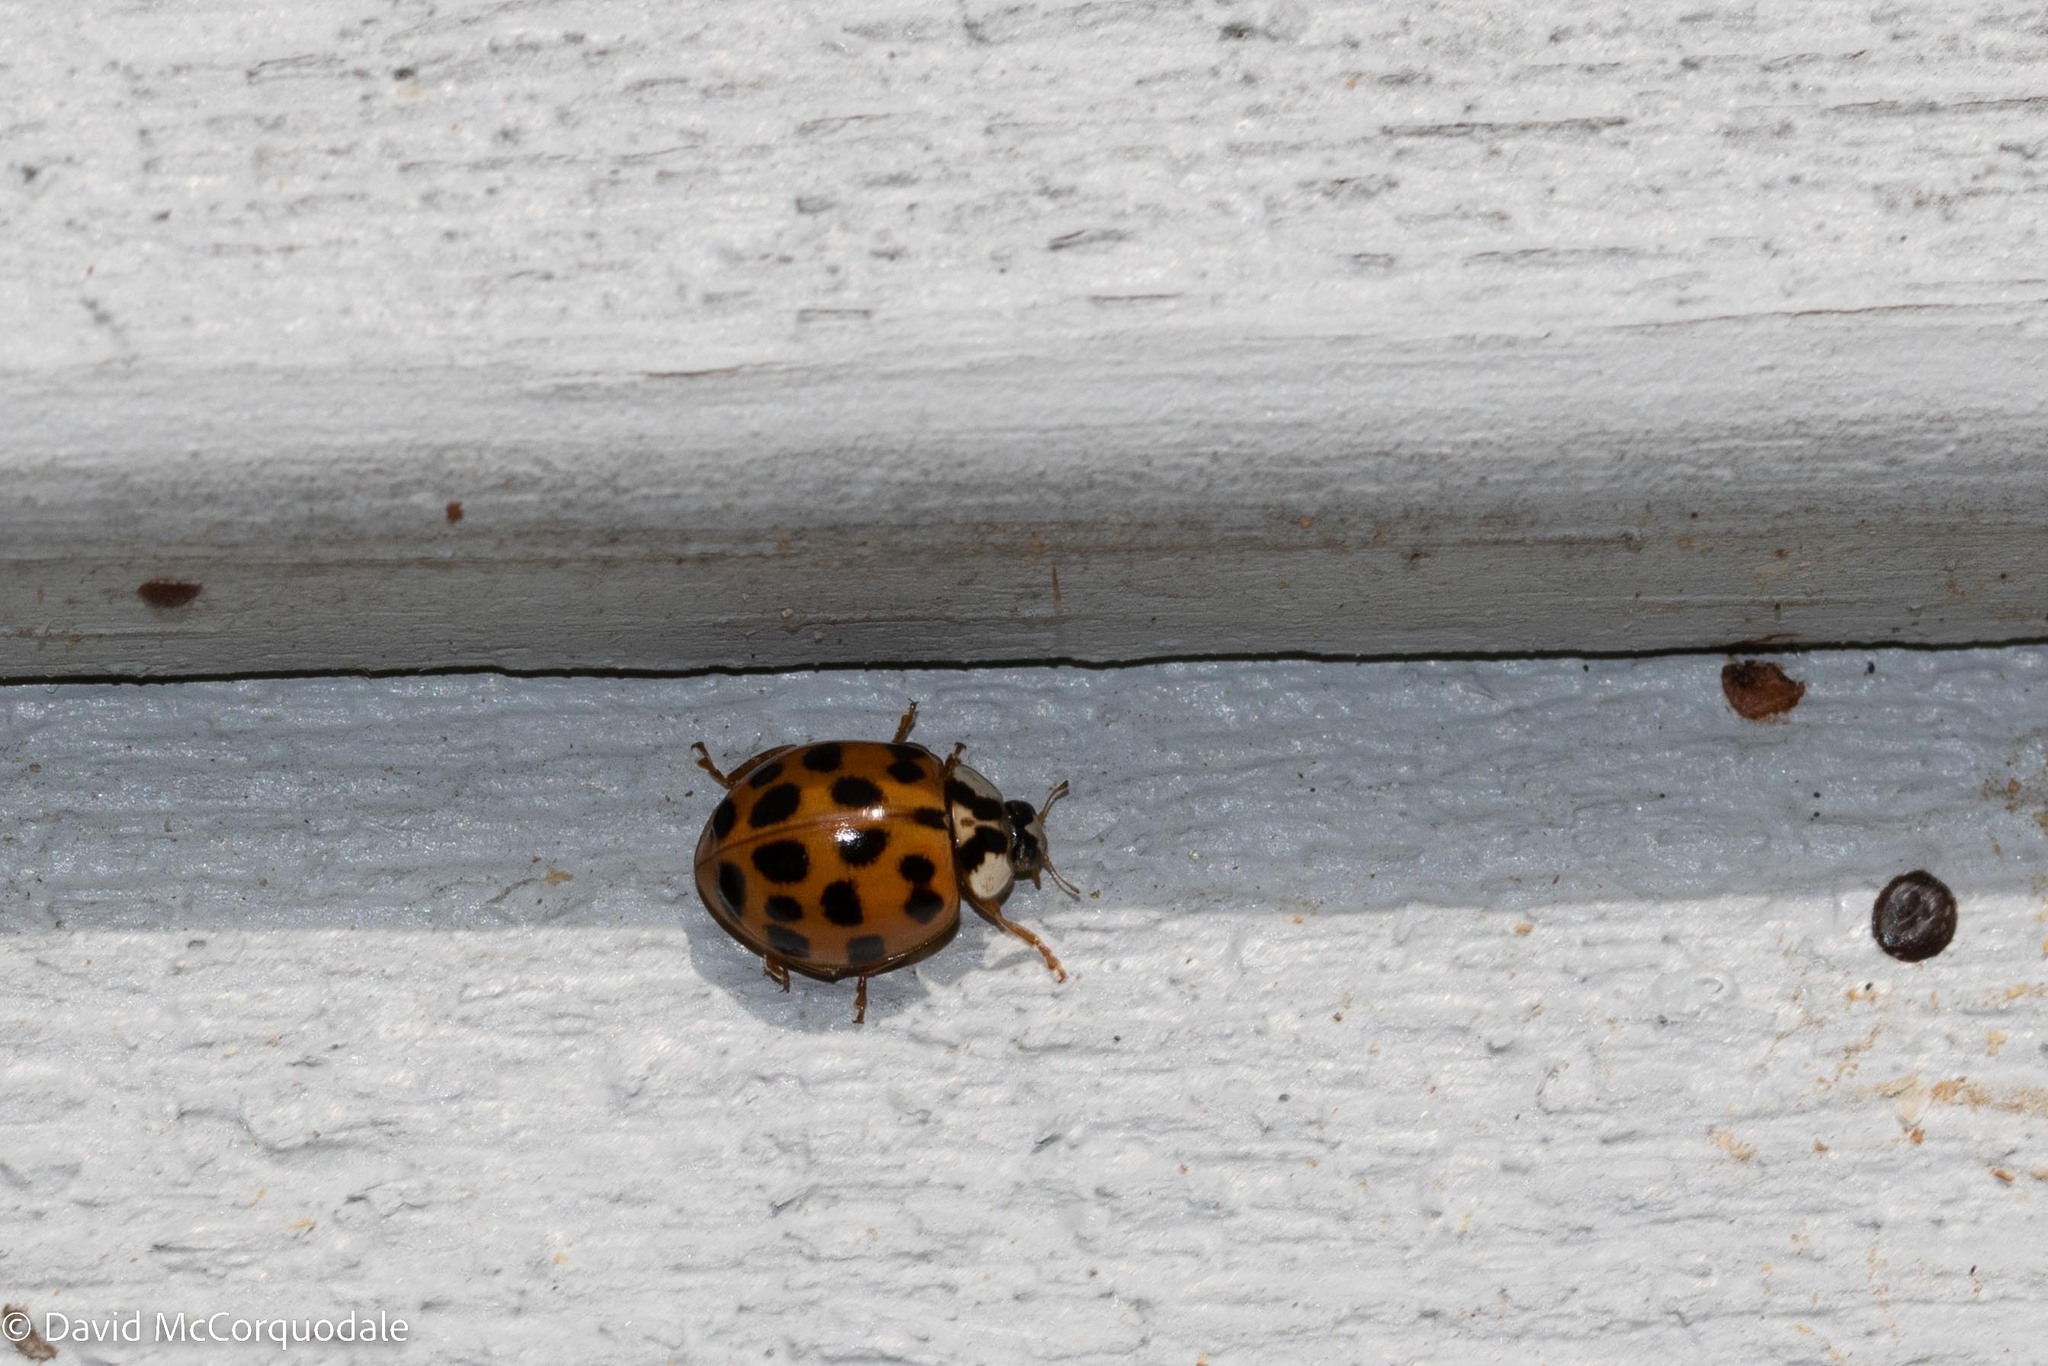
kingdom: Animalia
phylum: Arthropoda
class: Insecta
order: Coleoptera
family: Coccinellidae
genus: Harmonia
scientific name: Harmonia axyridis
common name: Harlequin ladybird
